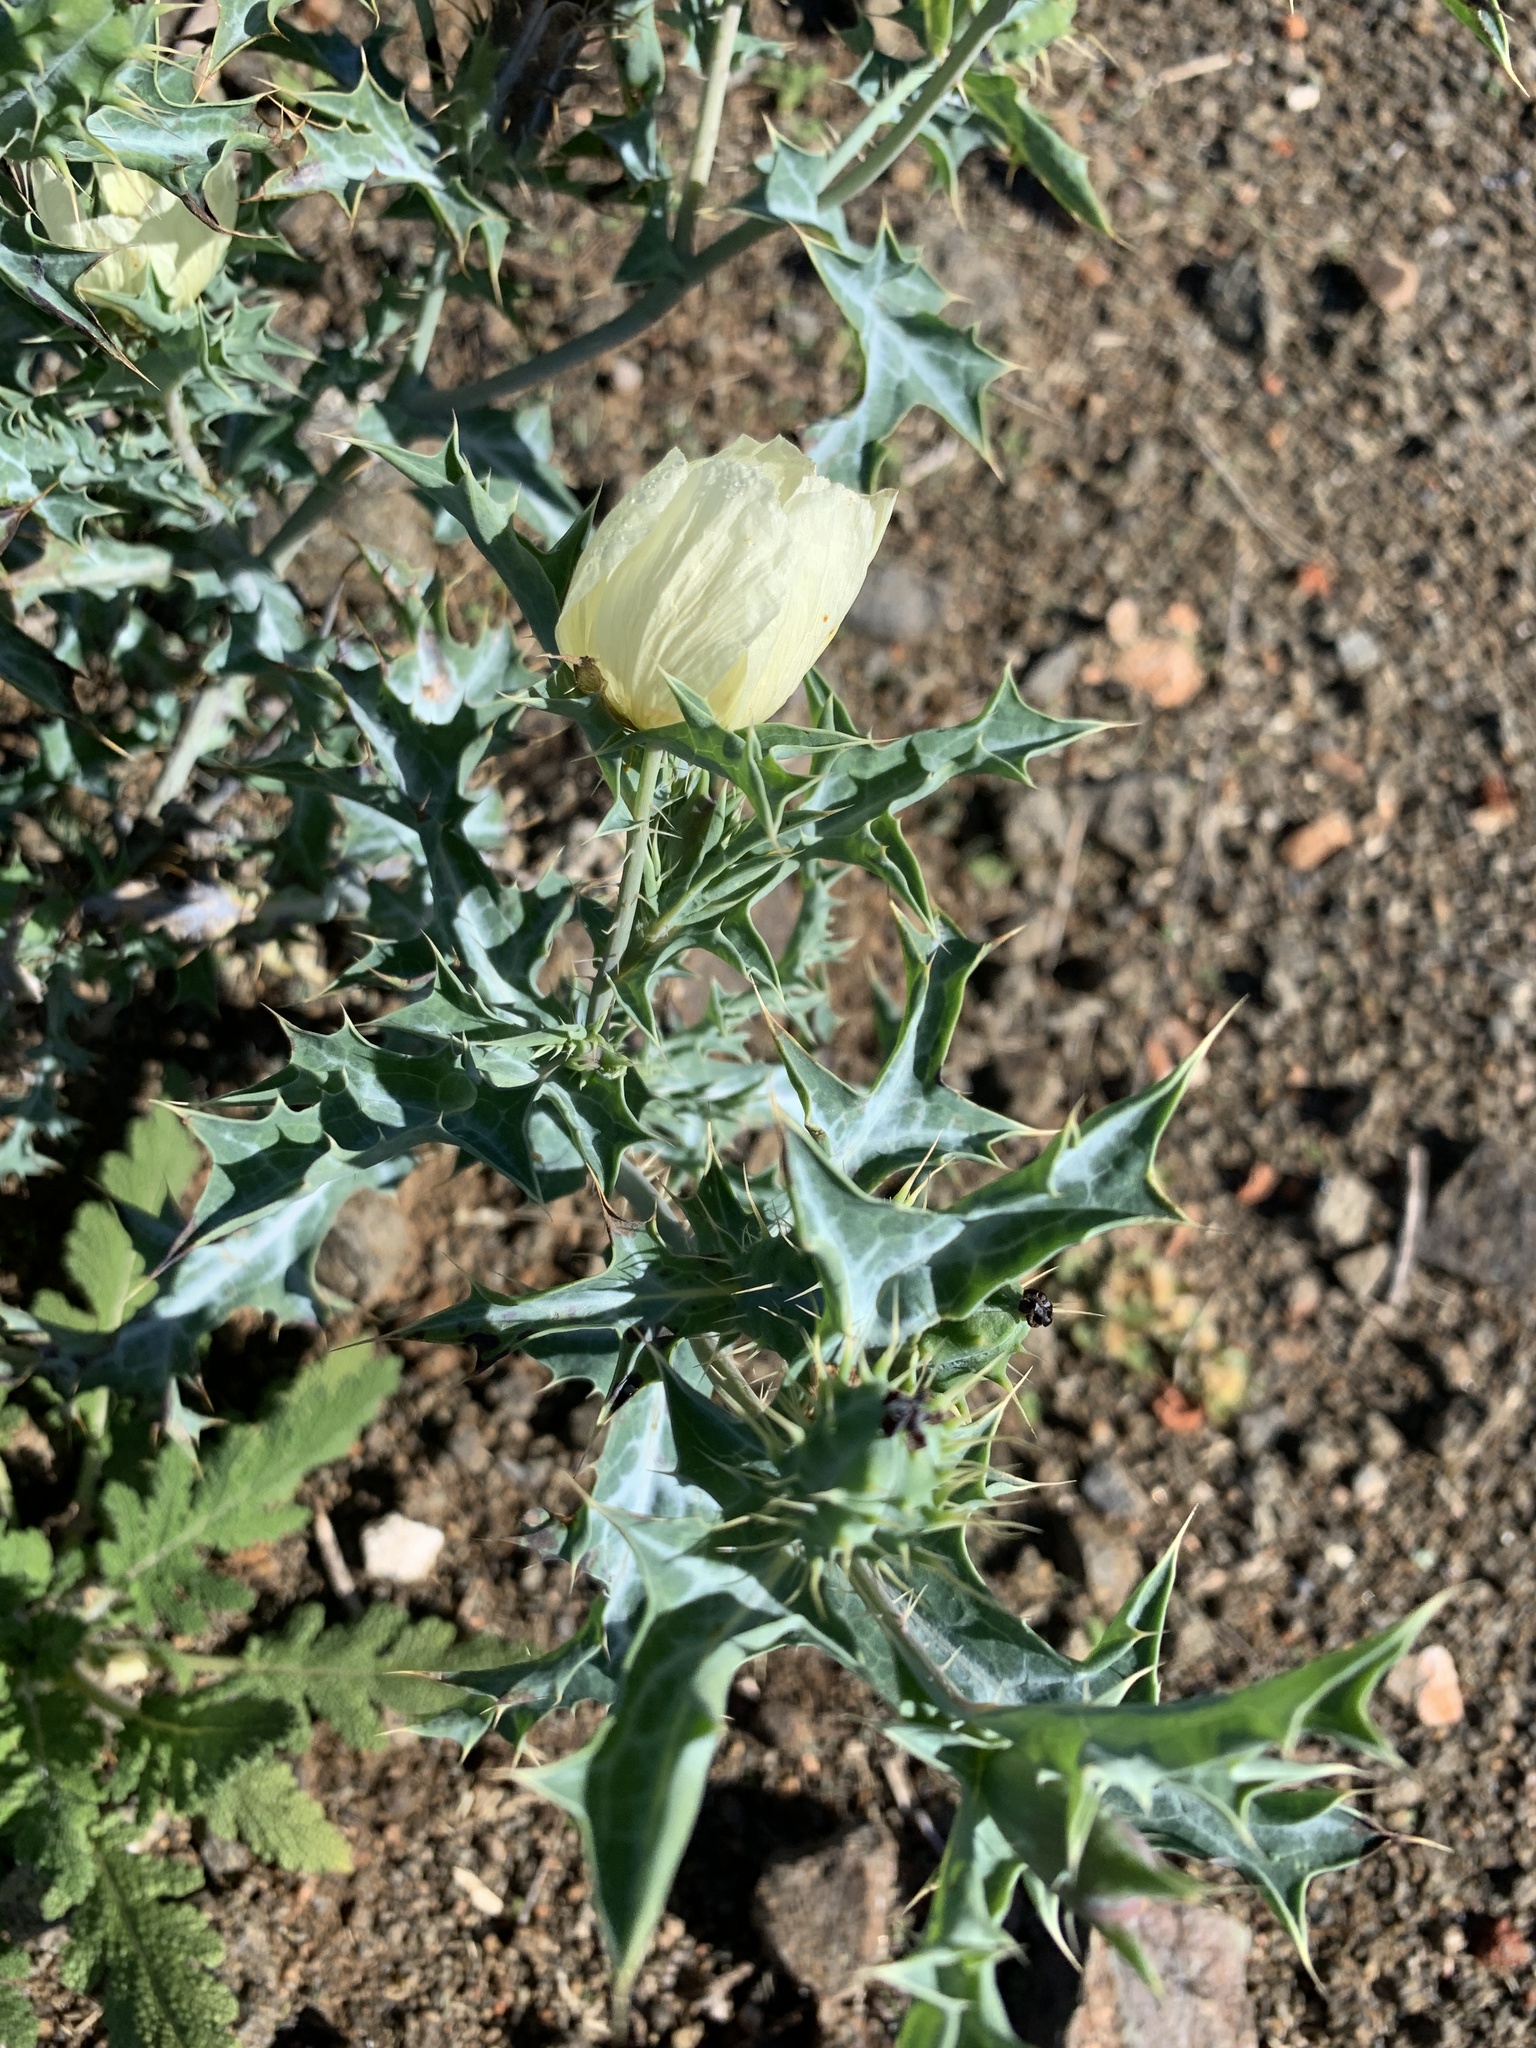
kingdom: Plantae
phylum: Tracheophyta
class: Magnoliopsida
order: Ranunculales
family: Papaveraceae
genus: Argemone
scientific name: Argemone ochroleuca
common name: White-flower mexican-poppy
